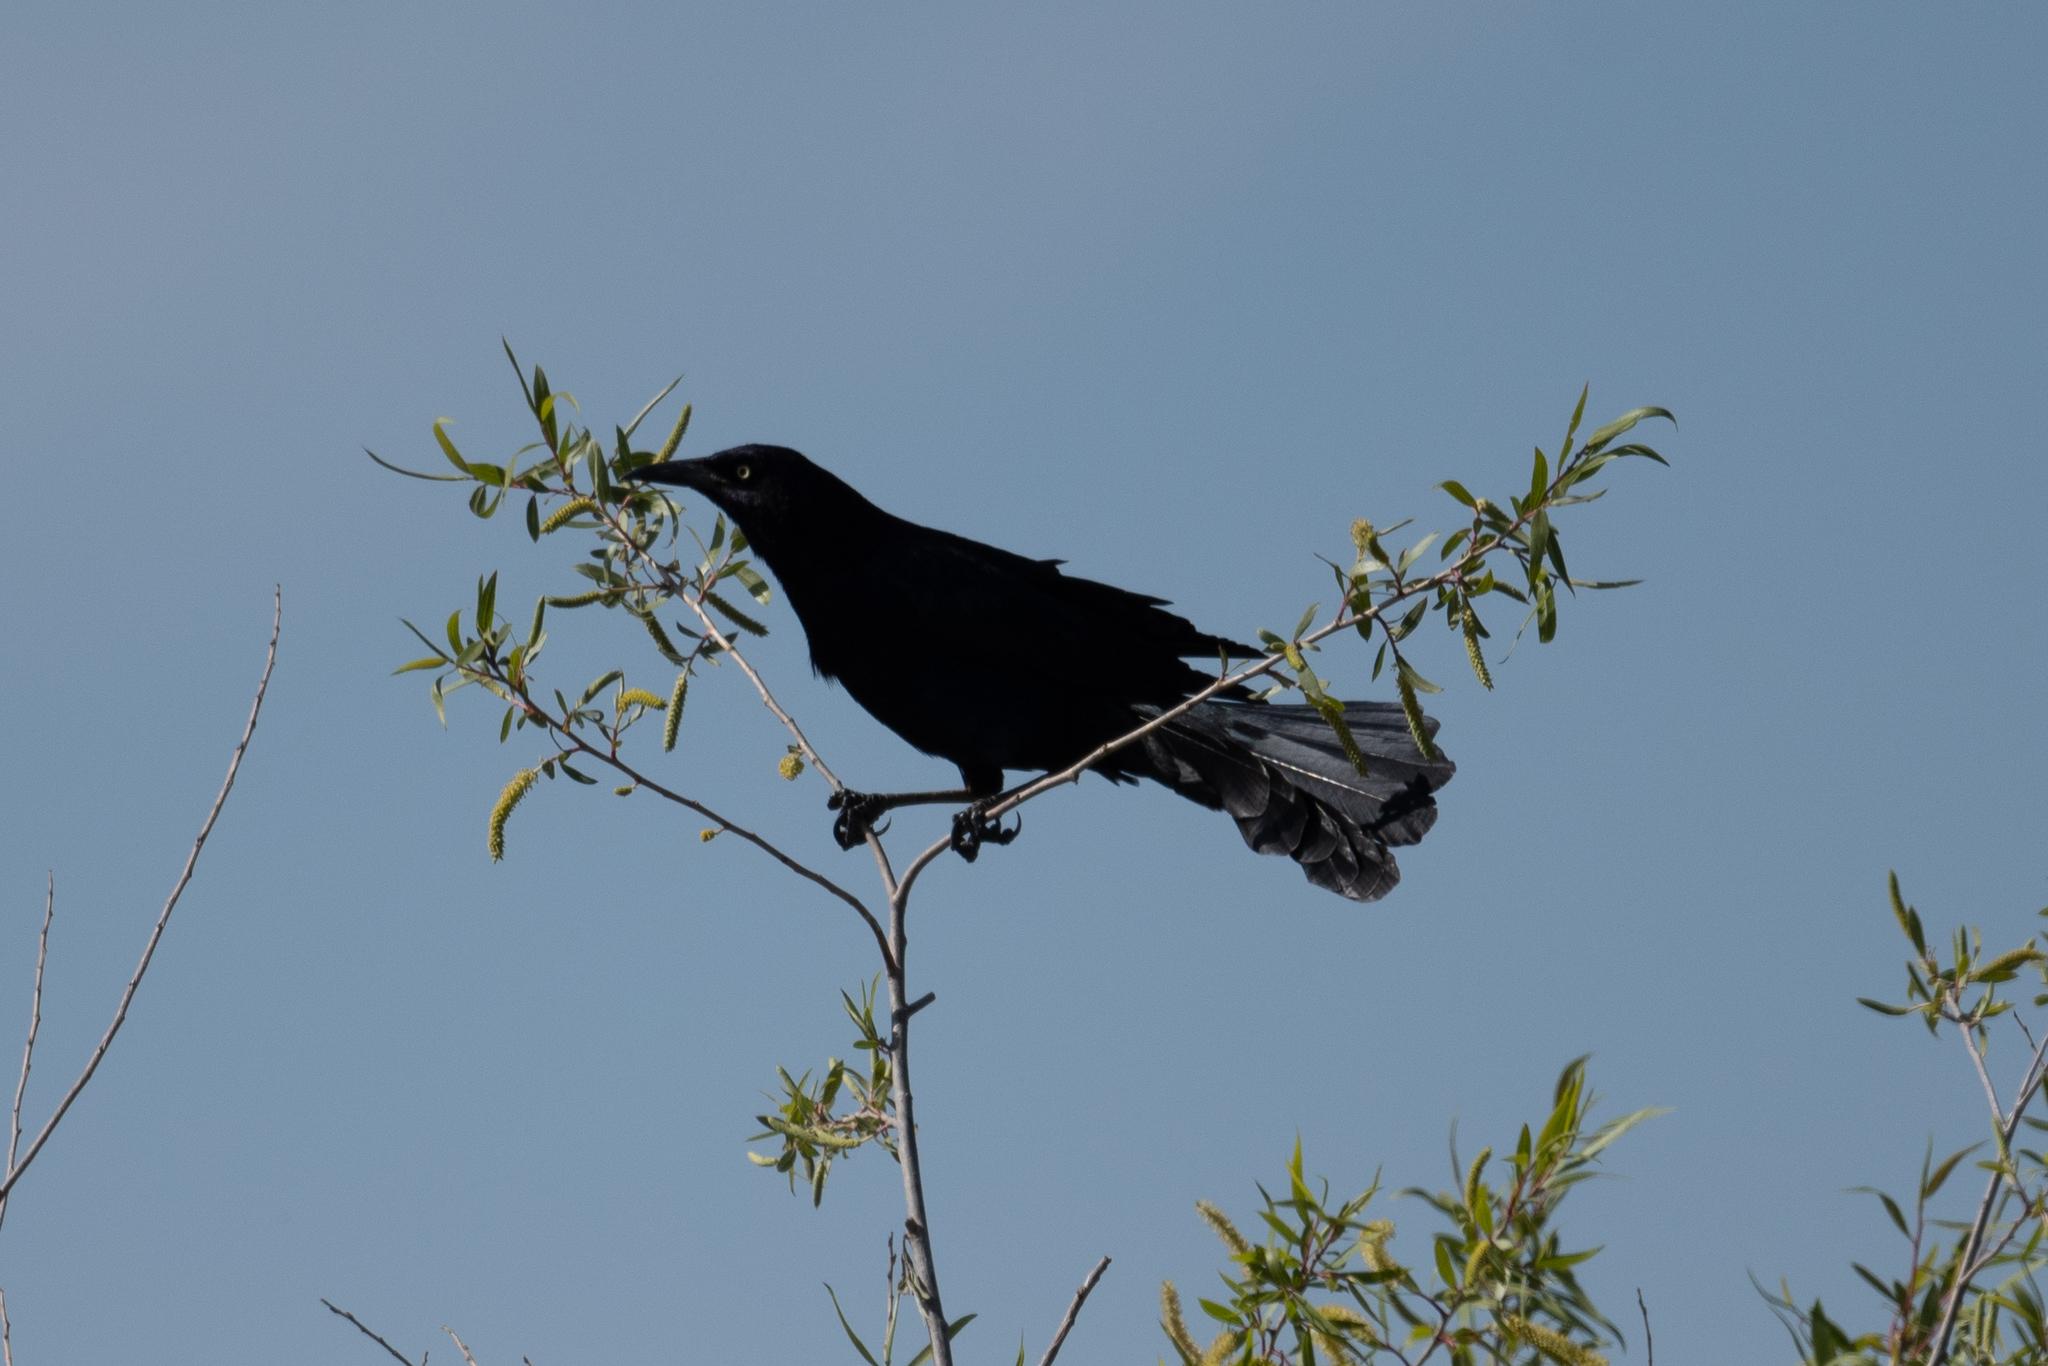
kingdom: Animalia
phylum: Chordata
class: Aves
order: Passeriformes
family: Icteridae
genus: Quiscalus
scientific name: Quiscalus mexicanus
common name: Great-tailed grackle
